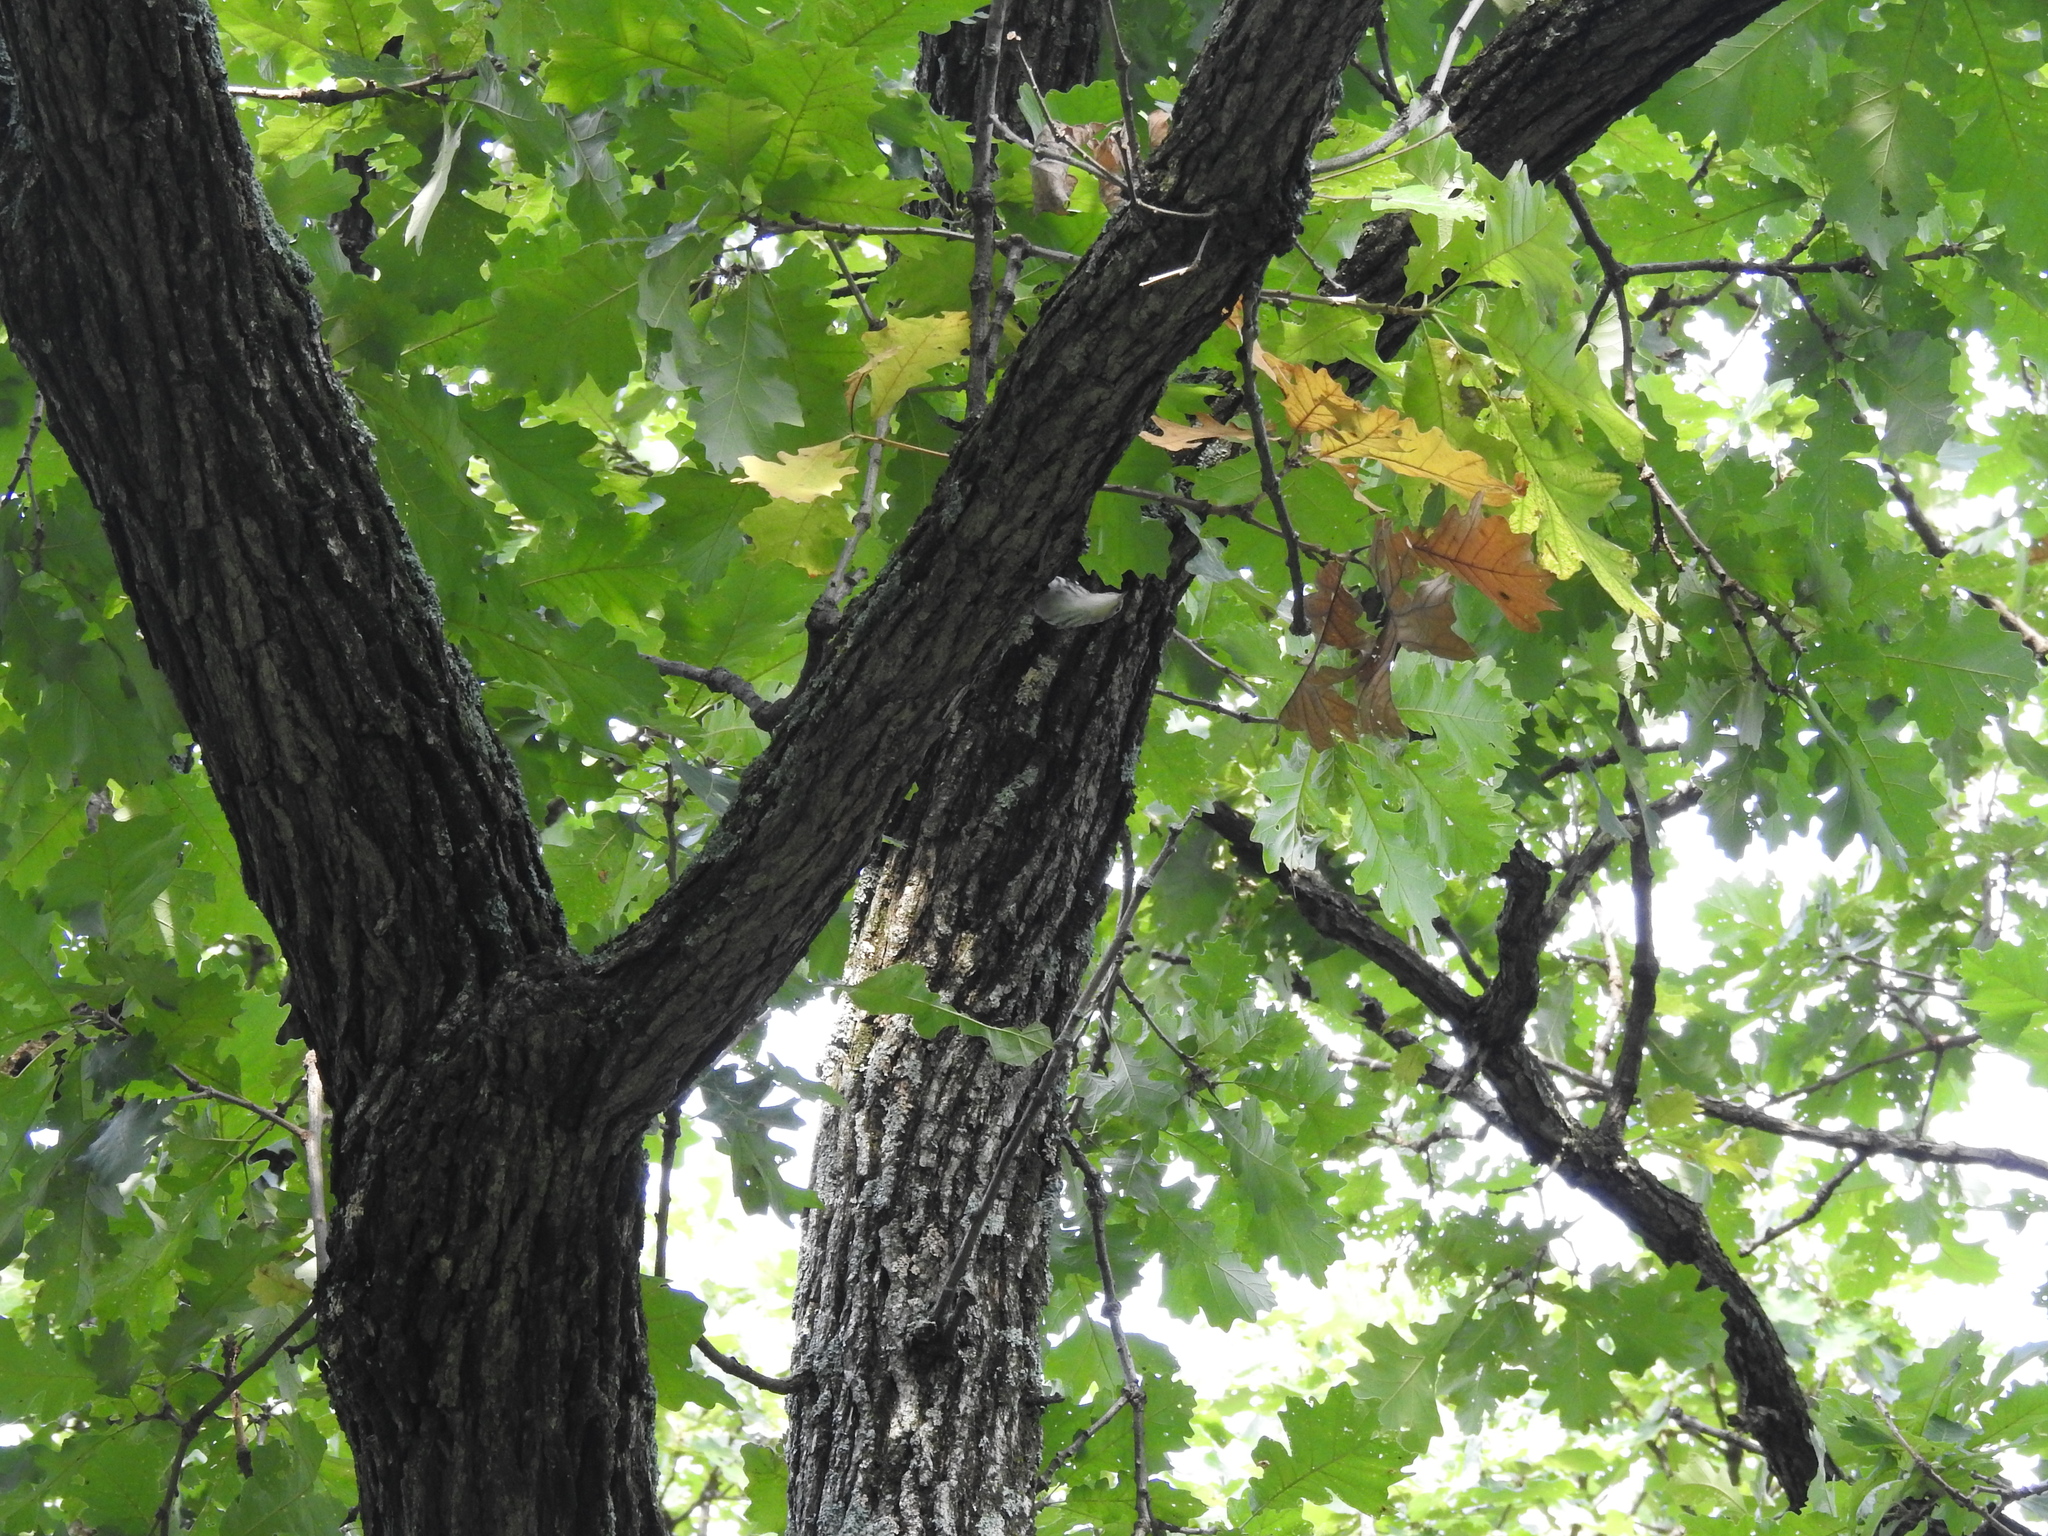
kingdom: Animalia
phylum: Chordata
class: Aves
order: Passeriformes
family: Parulidae
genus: Mniotilta
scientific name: Mniotilta varia
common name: Black-and-white warbler
